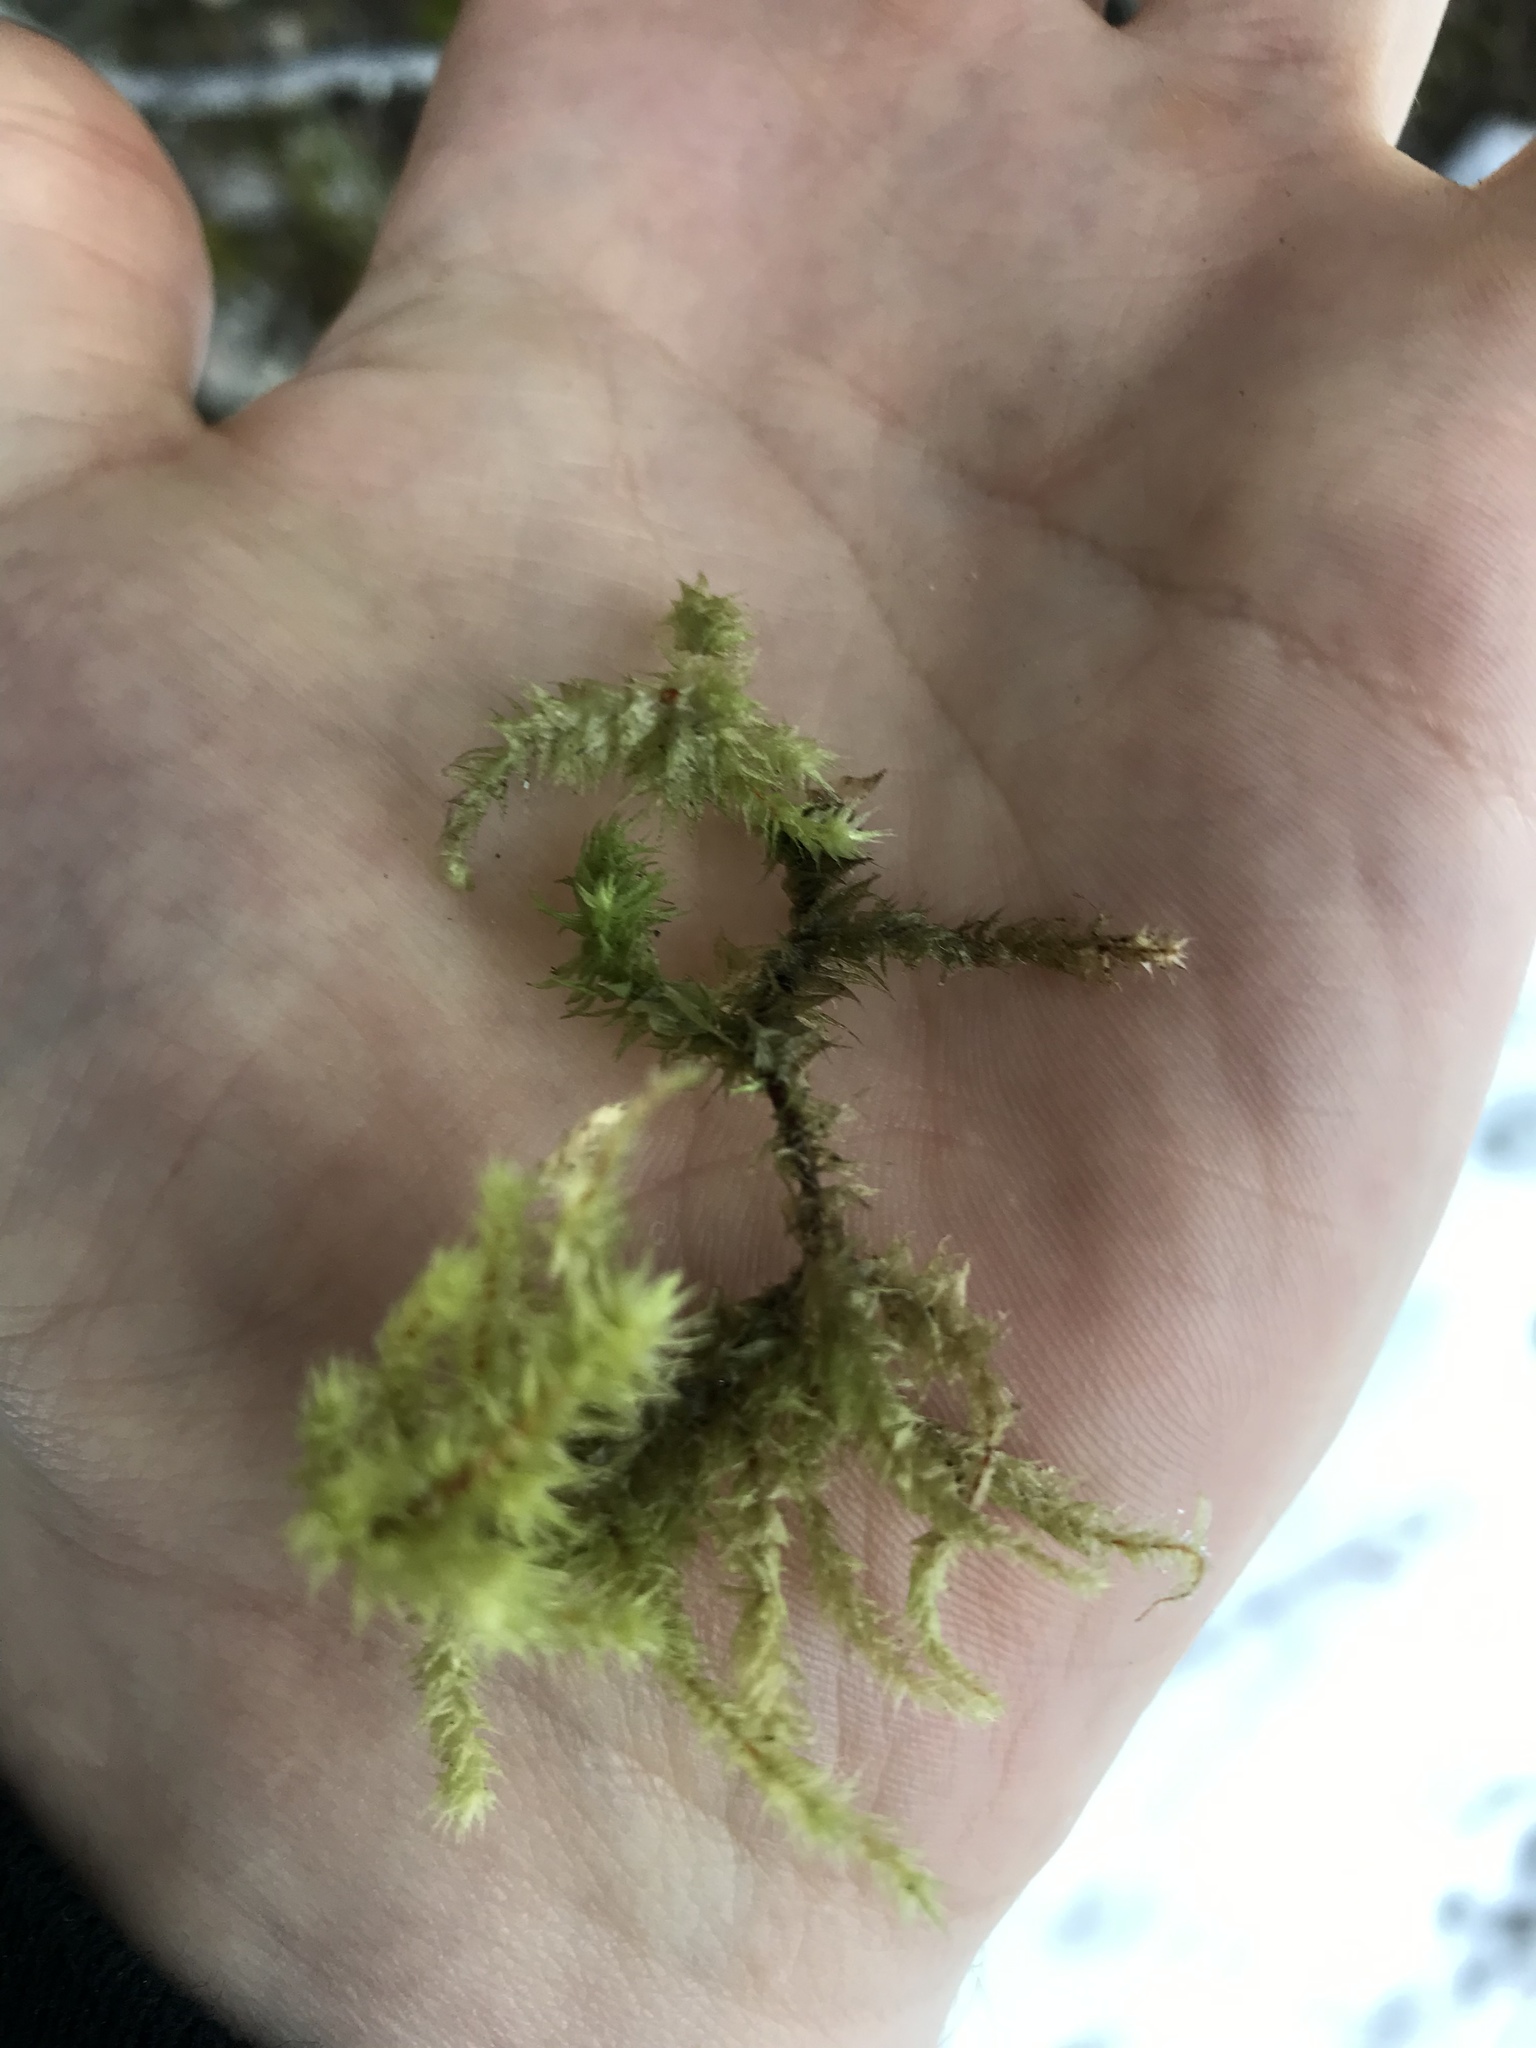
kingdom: Plantae
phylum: Bryophyta
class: Bryopsida
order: Hypnales
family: Hylocomiaceae
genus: Hylocomiadelphus
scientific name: Hylocomiadelphus triquetrus
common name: Rough goose neck moss
